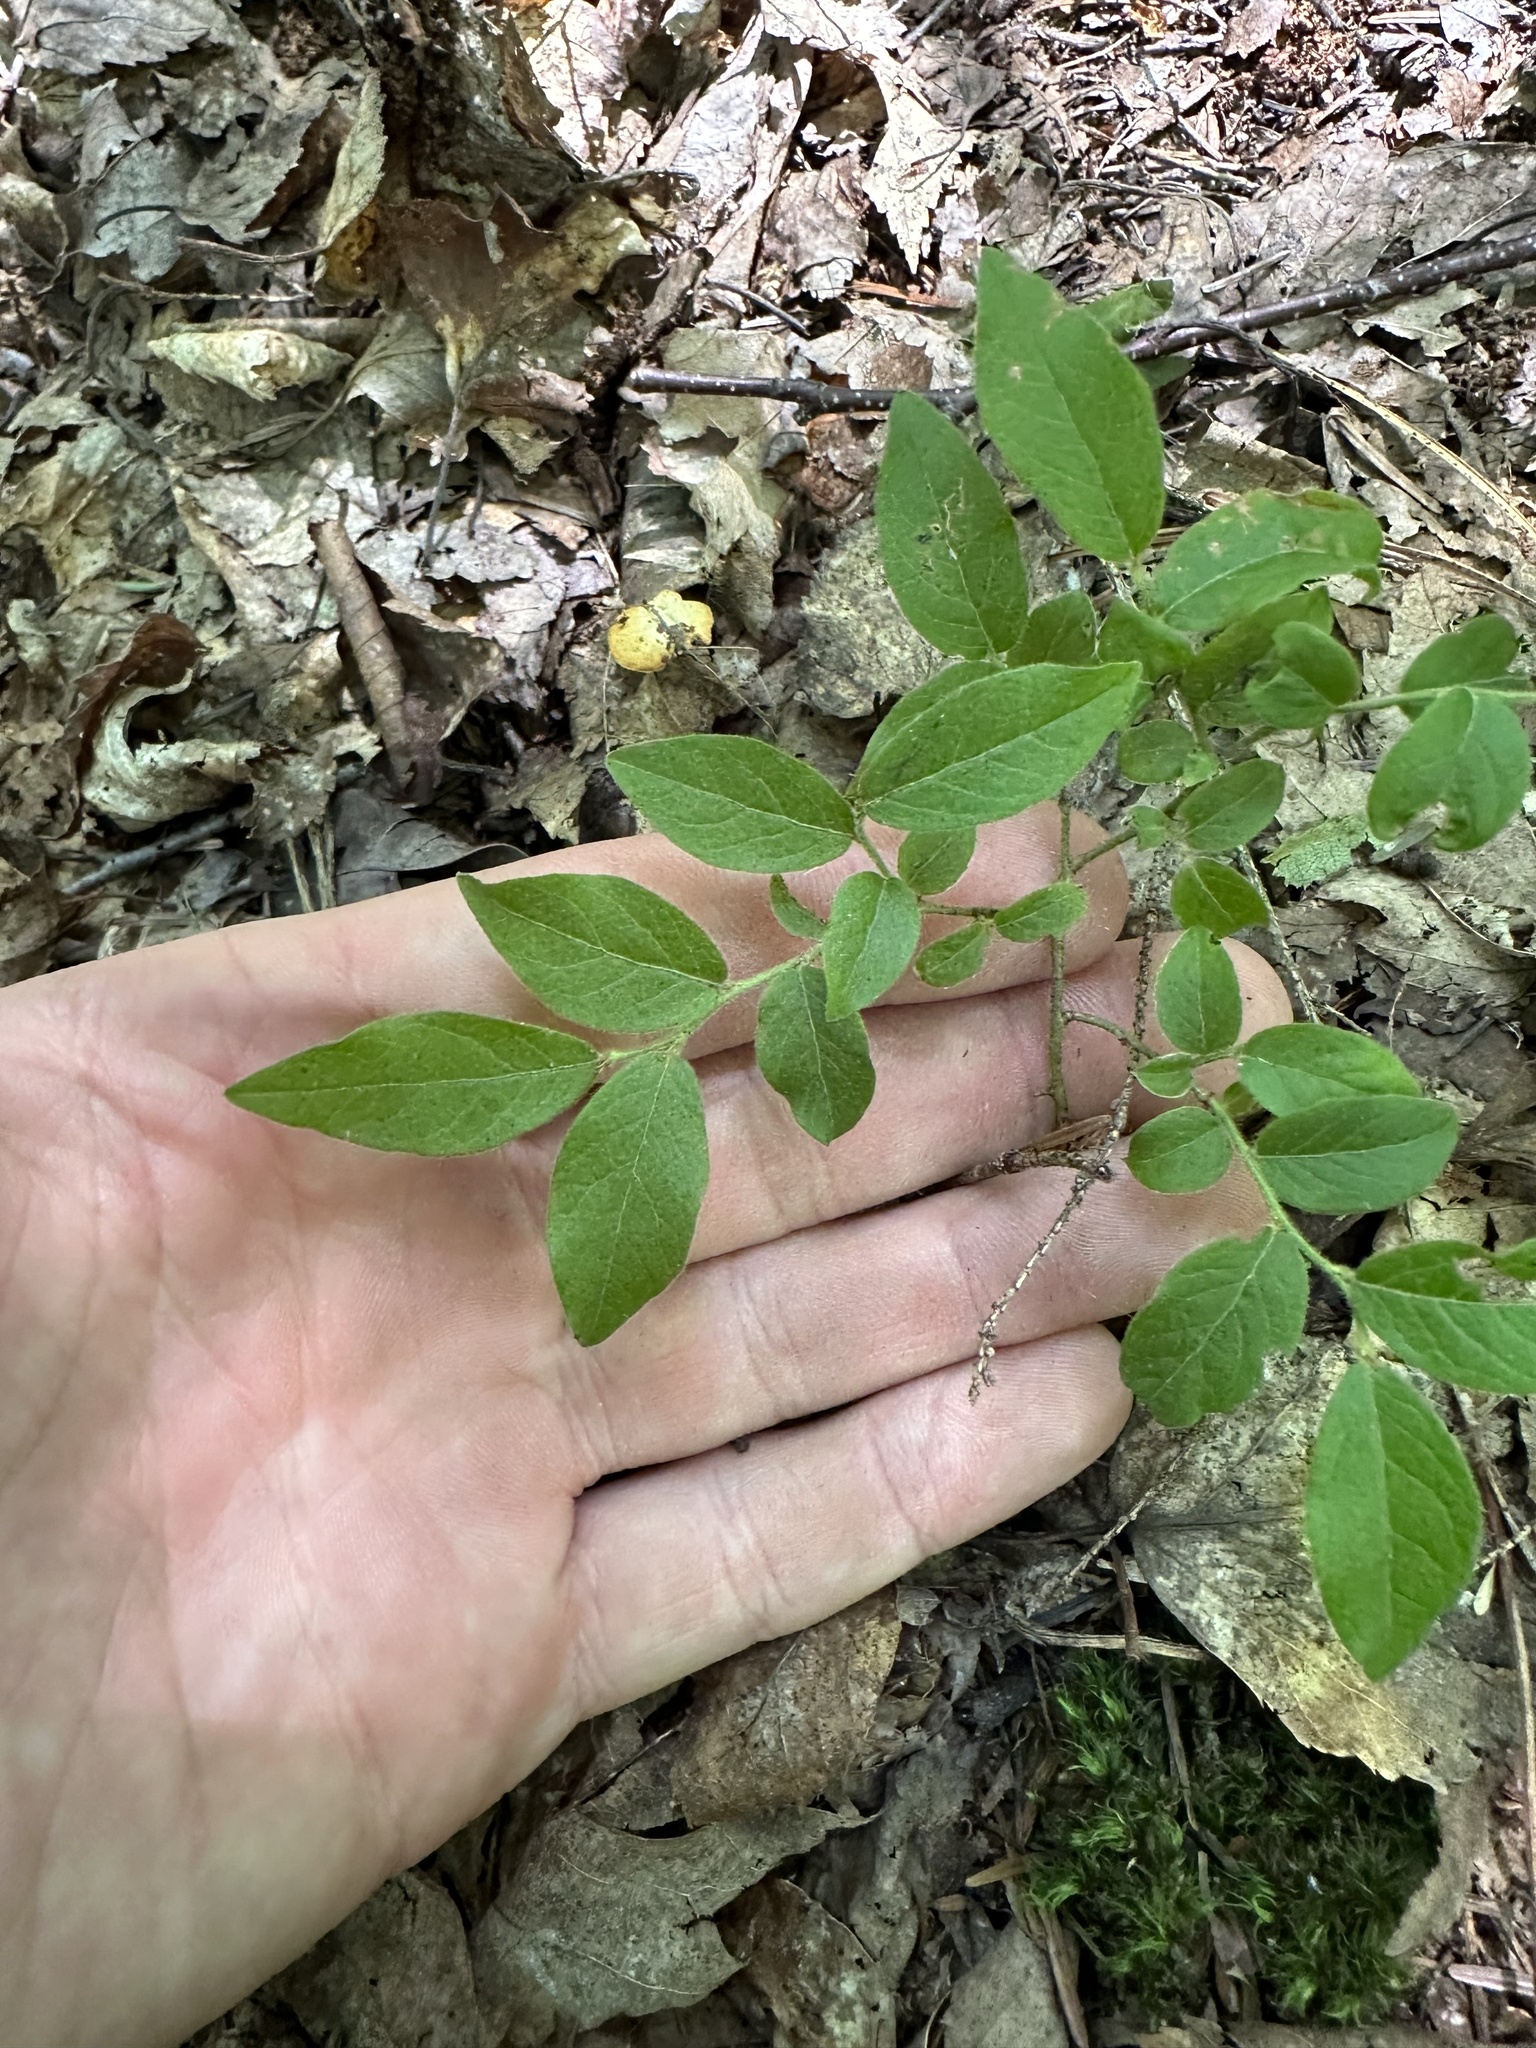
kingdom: Plantae
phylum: Tracheophyta
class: Magnoliopsida
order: Ericales
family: Ericaceae
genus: Vaccinium
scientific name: Vaccinium myrtilloides
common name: Canada blueberry
